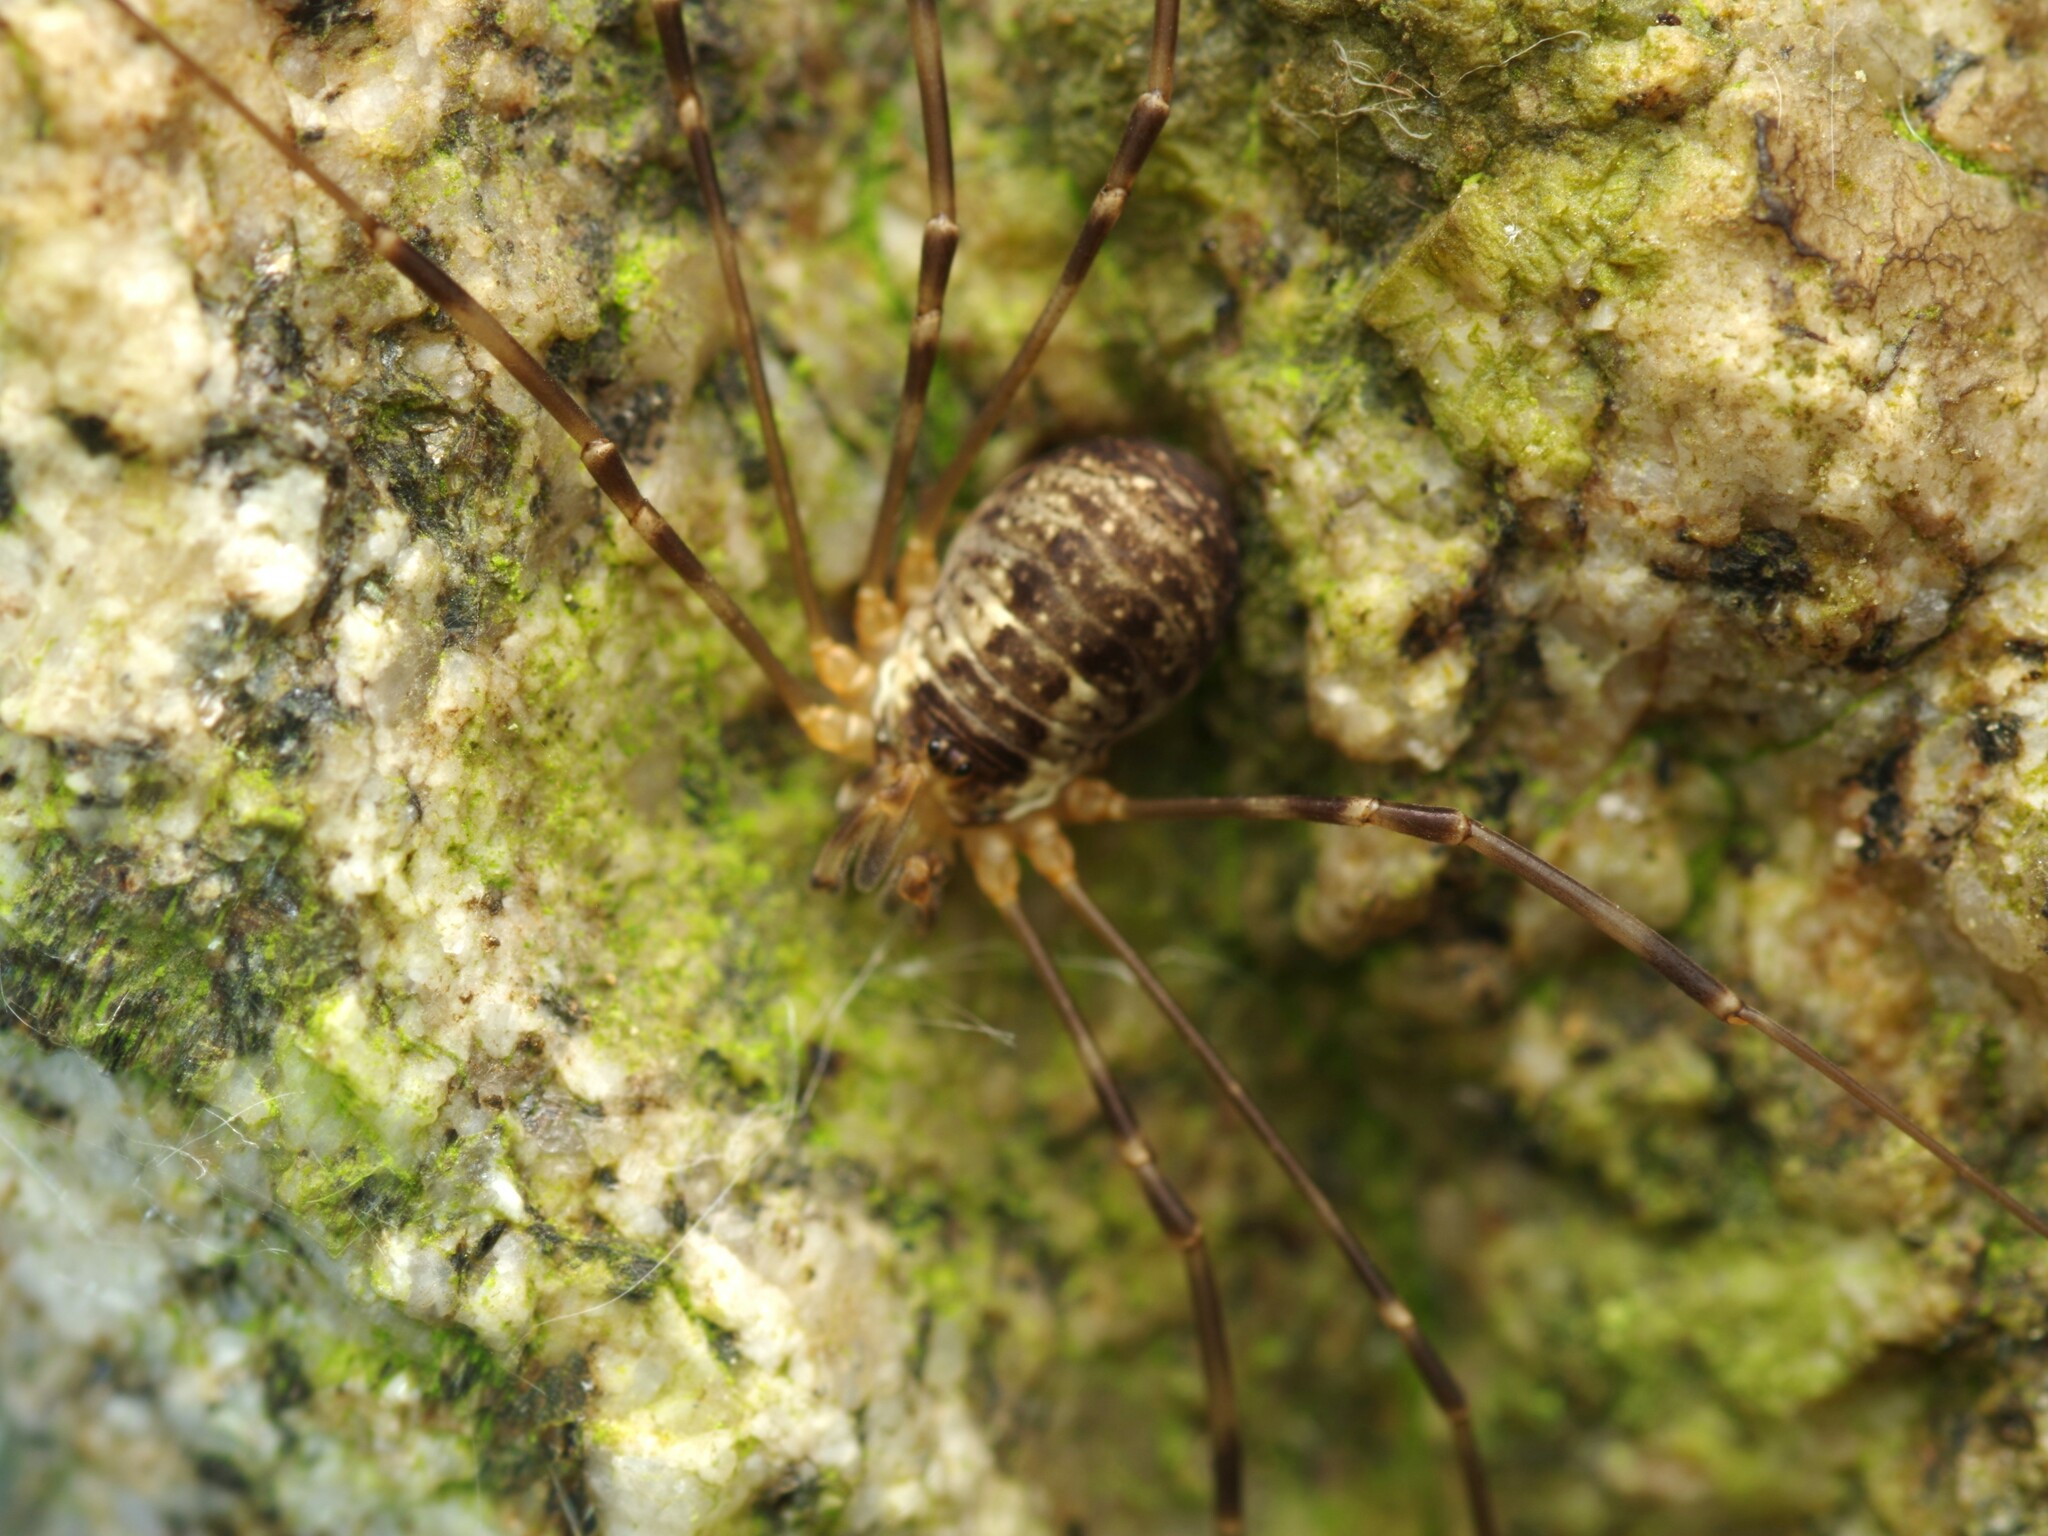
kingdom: Animalia
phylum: Arthropoda
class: Arachnida
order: Opiliones
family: Phalangiidae
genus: Dicranopalpus
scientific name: Dicranopalpus catariegensis
